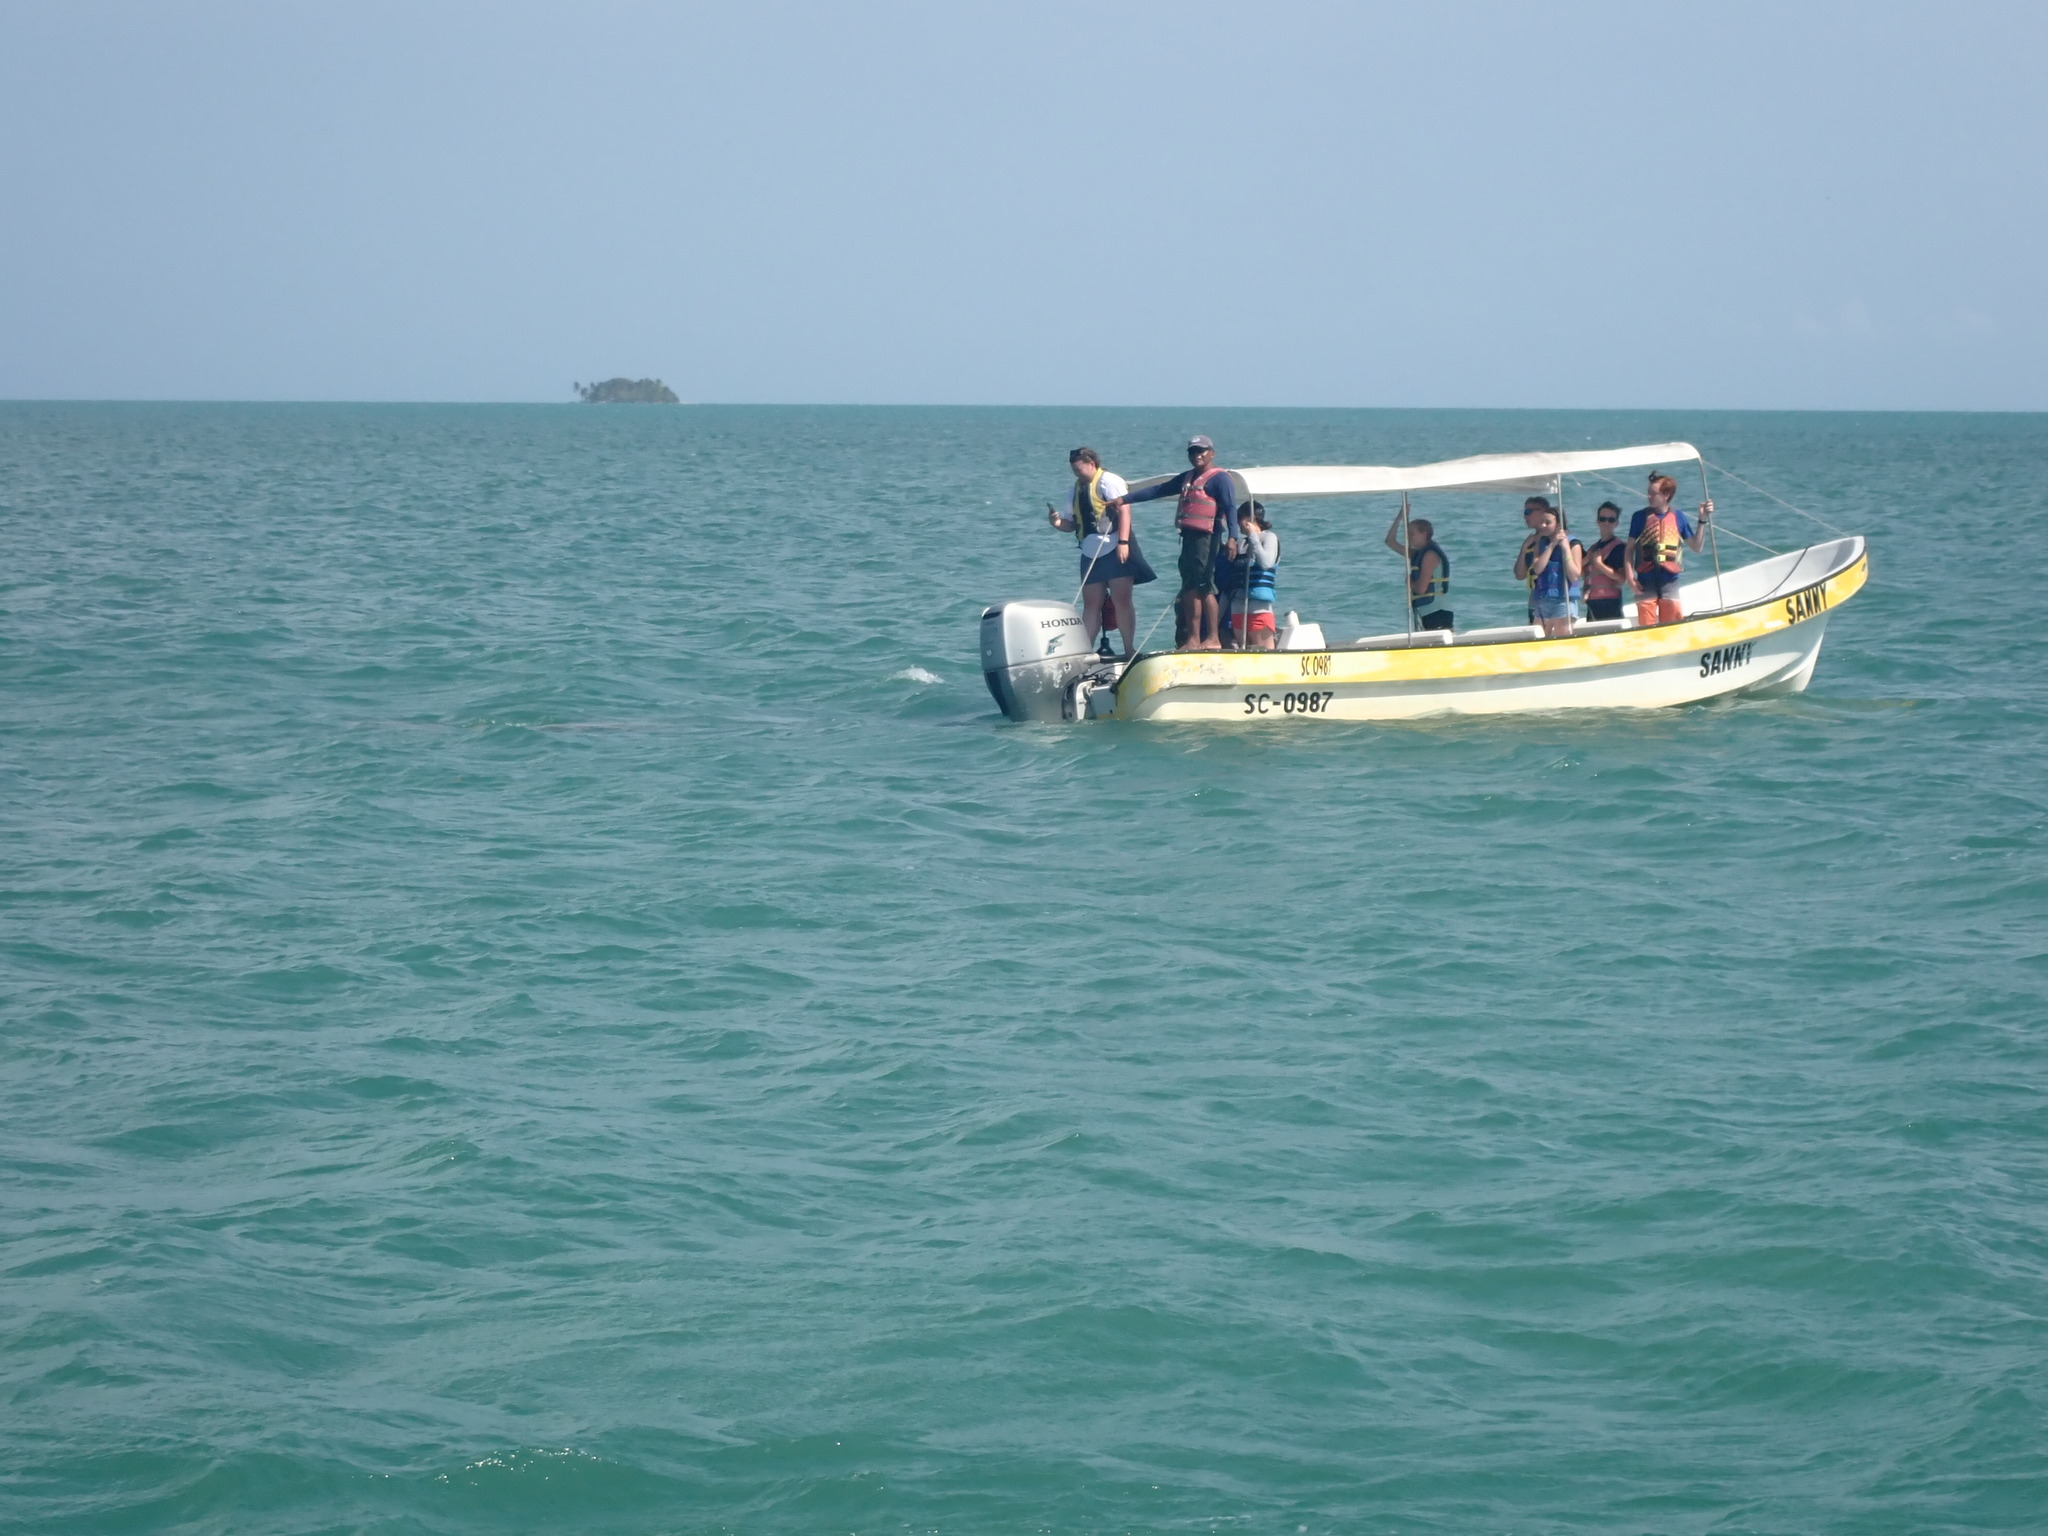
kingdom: Animalia
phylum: Chordata
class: Mammalia
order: Sirenia
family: Trichechidae
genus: Trichechus
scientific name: Trichechus manatus
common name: West indian manatee
